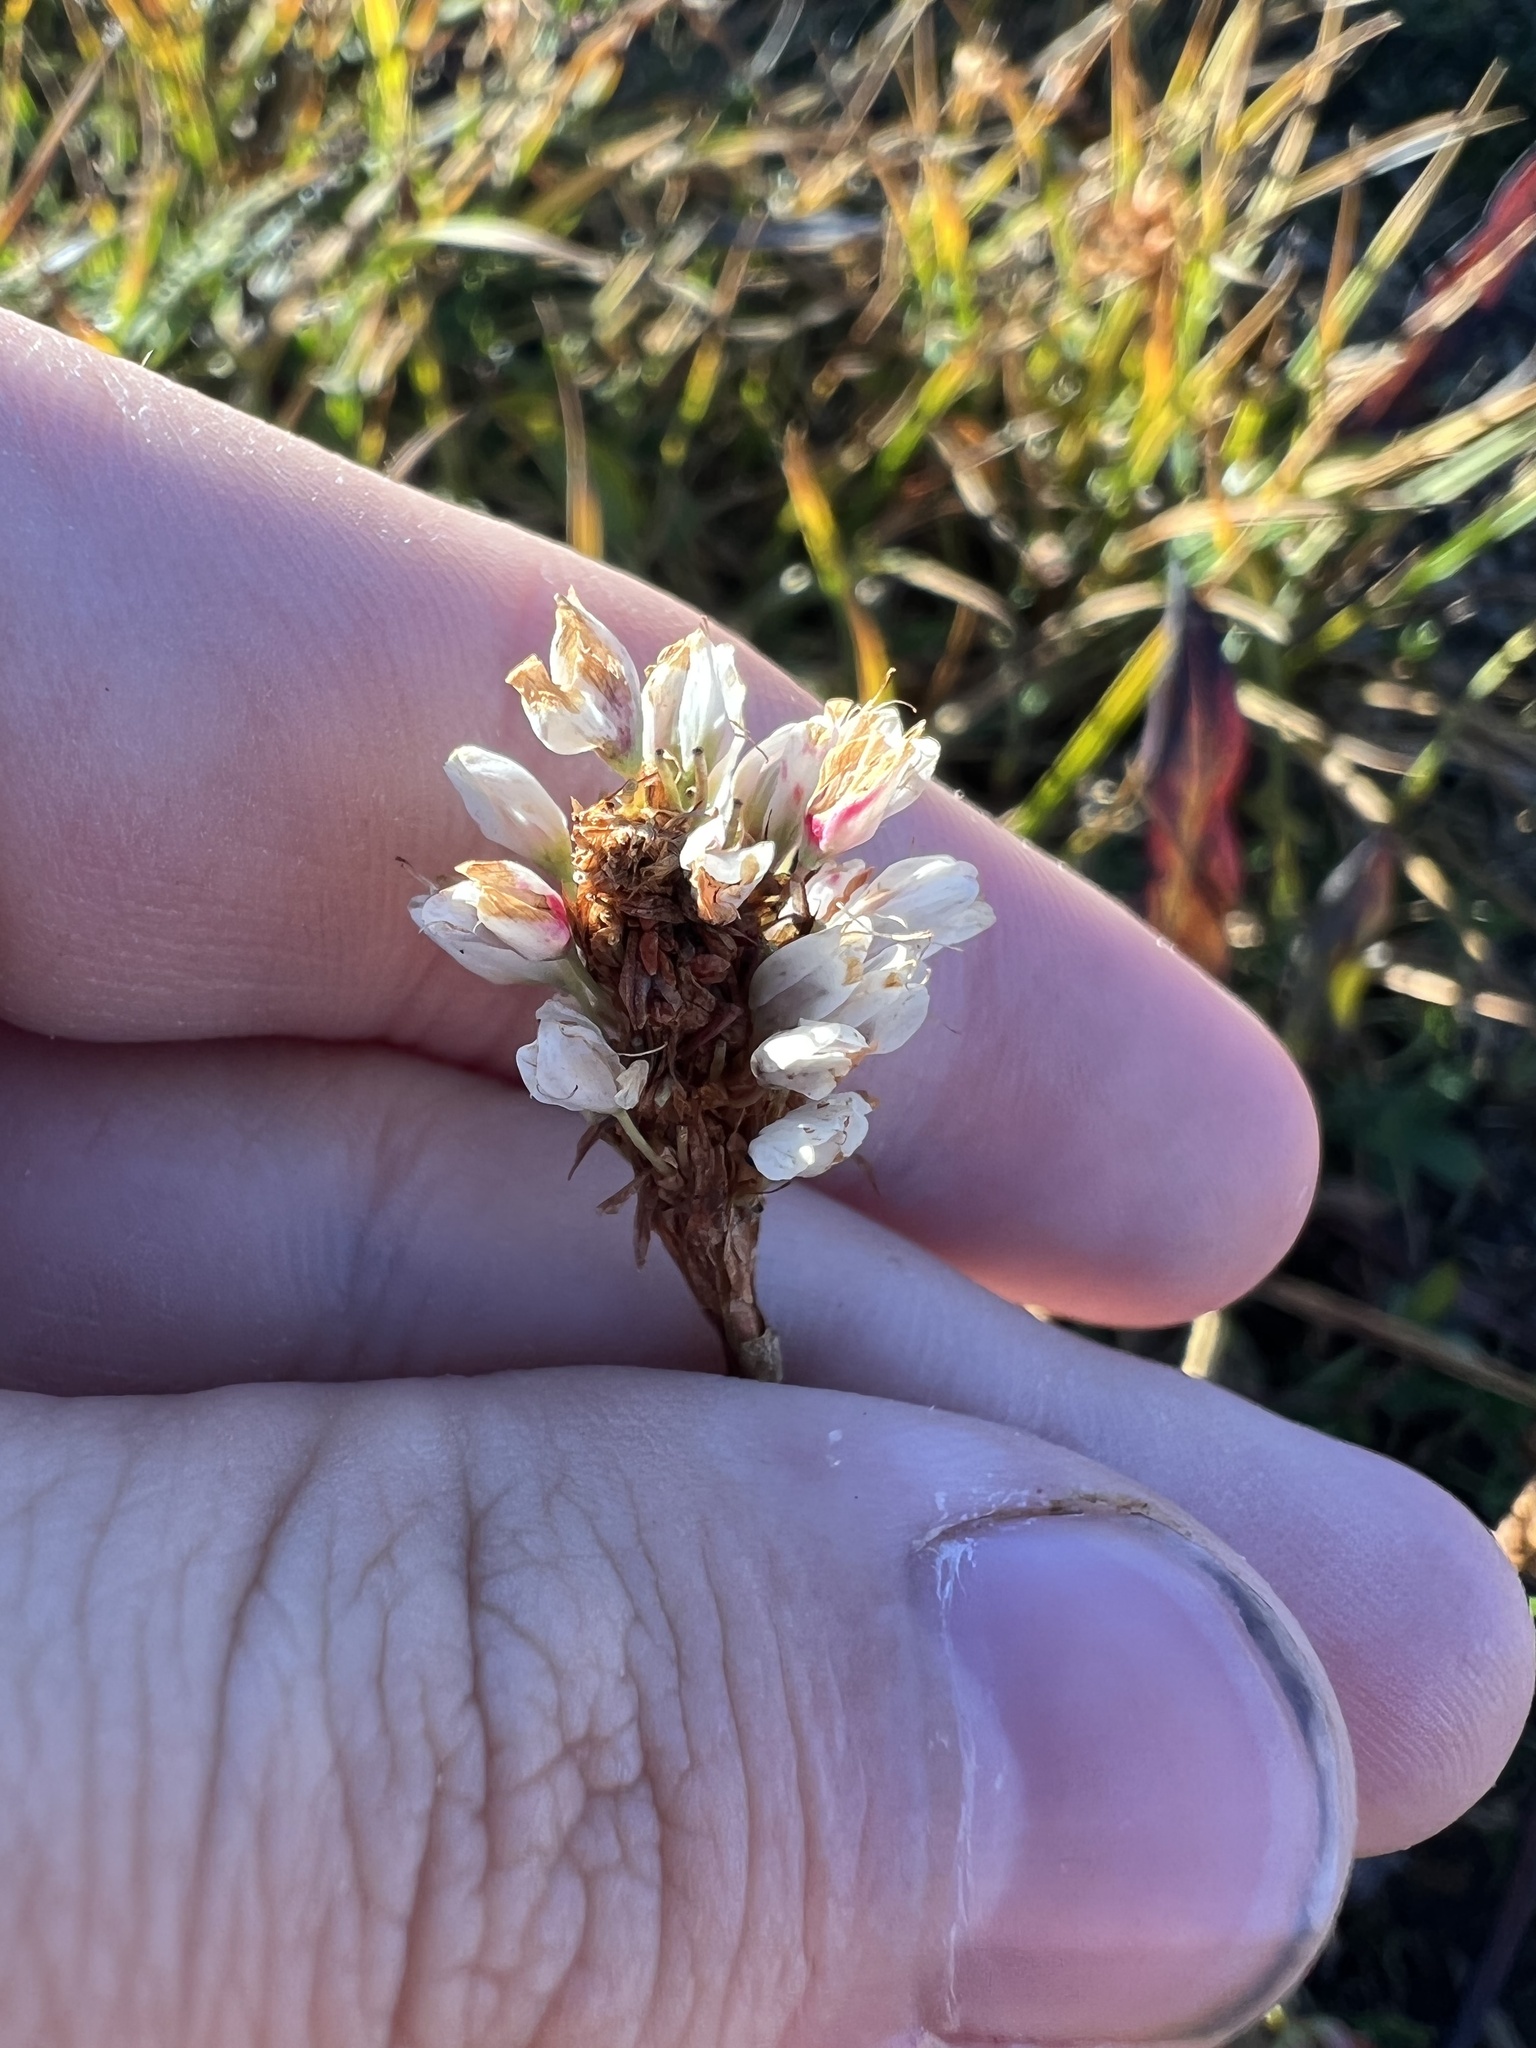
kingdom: Plantae
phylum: Tracheophyta
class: Magnoliopsida
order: Caryophyllales
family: Polygonaceae
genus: Bistorta
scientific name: Bistorta bistortoides
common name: American bistort
